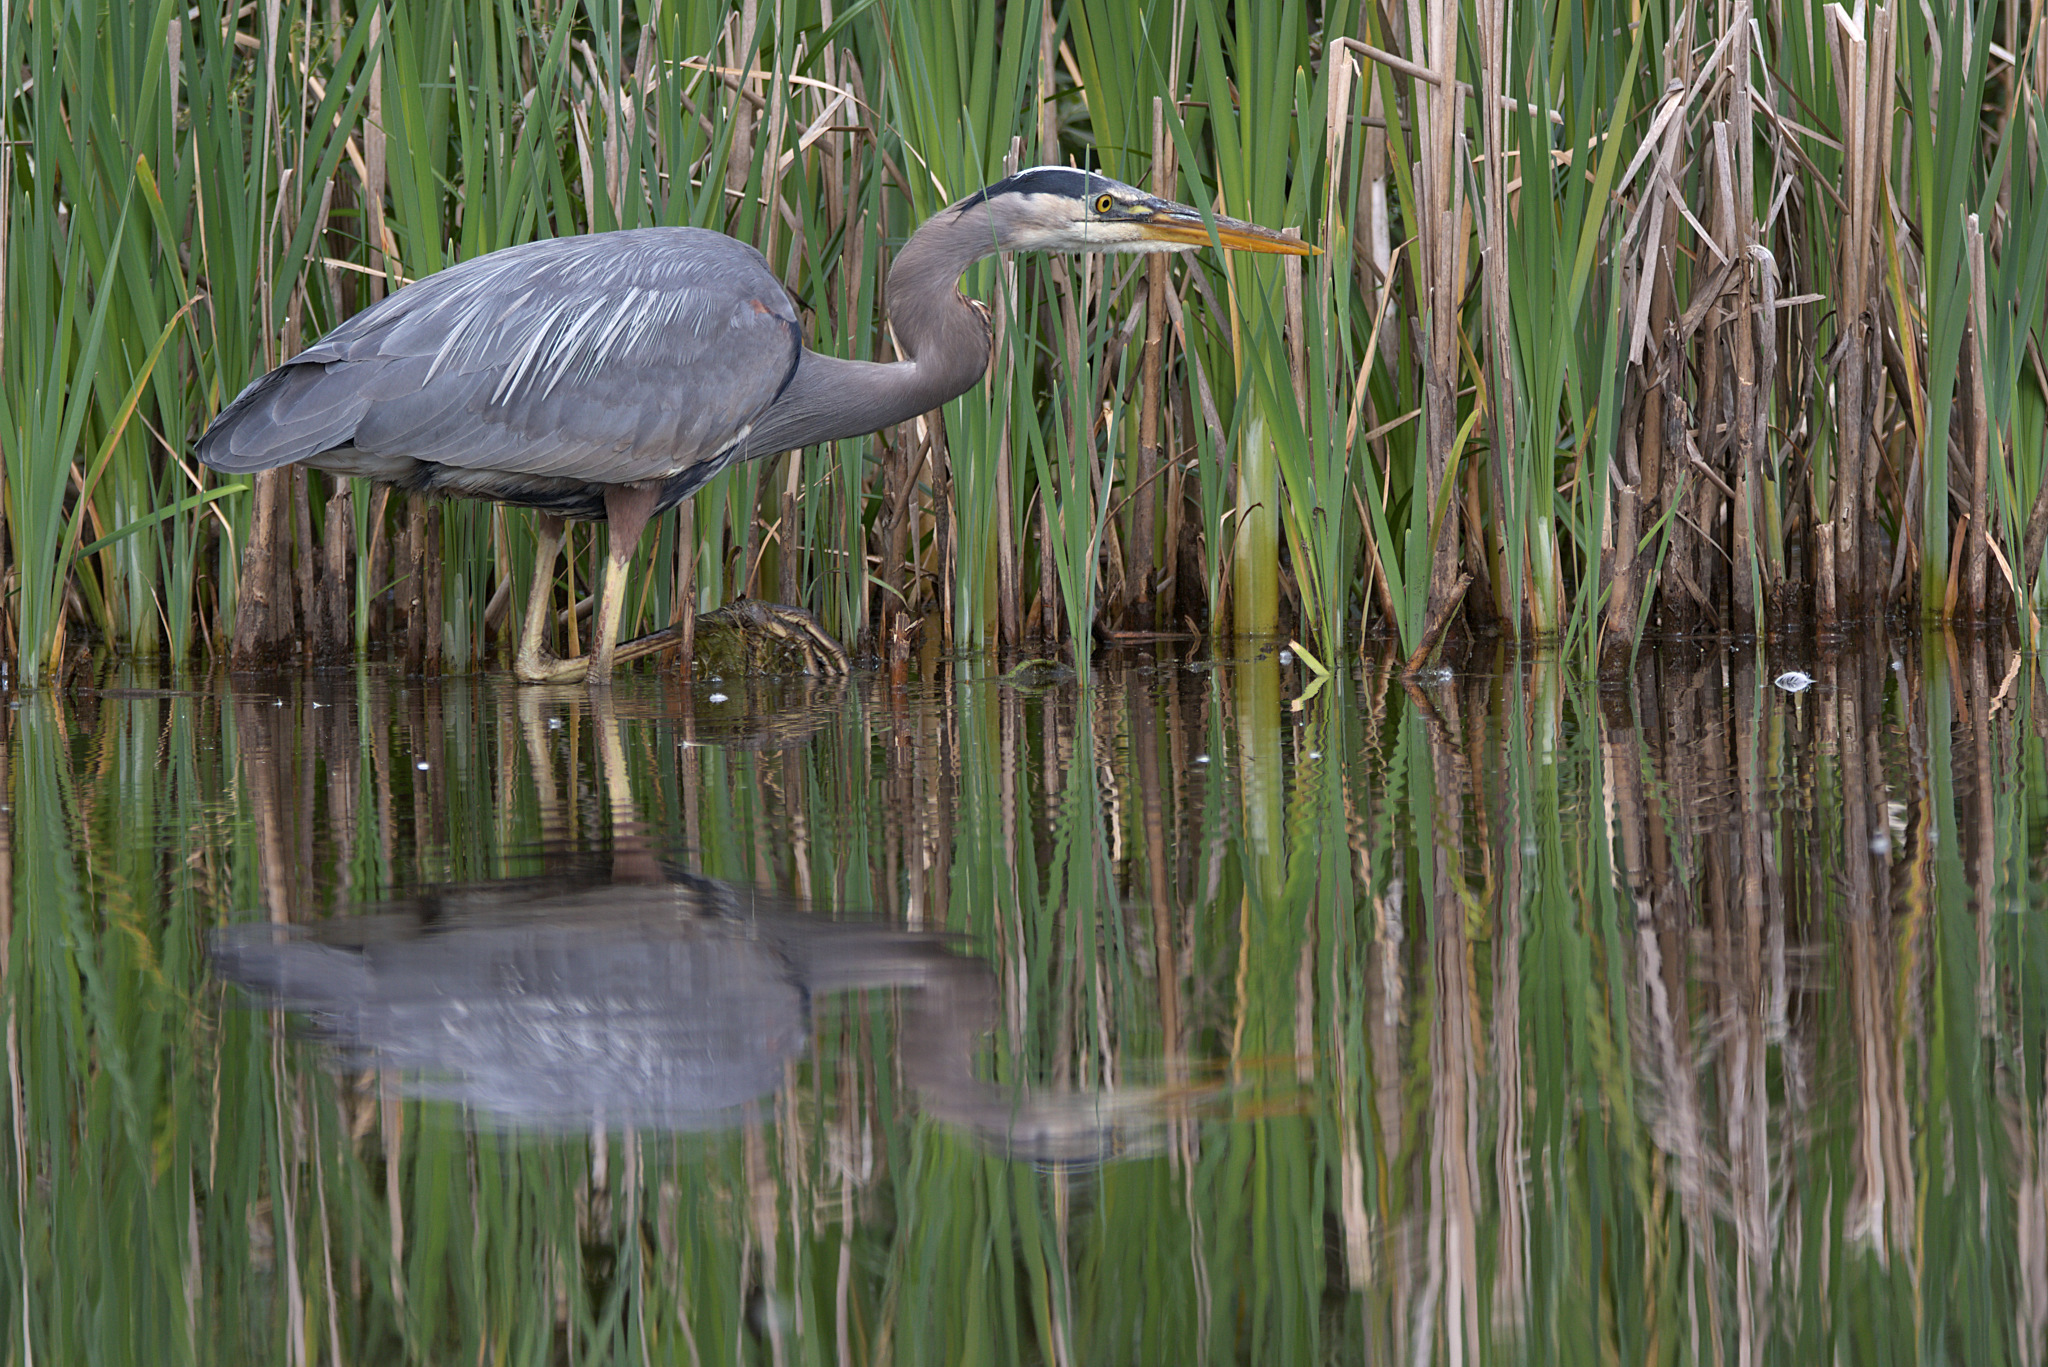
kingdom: Animalia
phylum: Chordata
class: Aves
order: Pelecaniformes
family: Ardeidae
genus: Ardea
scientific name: Ardea herodias
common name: Great blue heron
